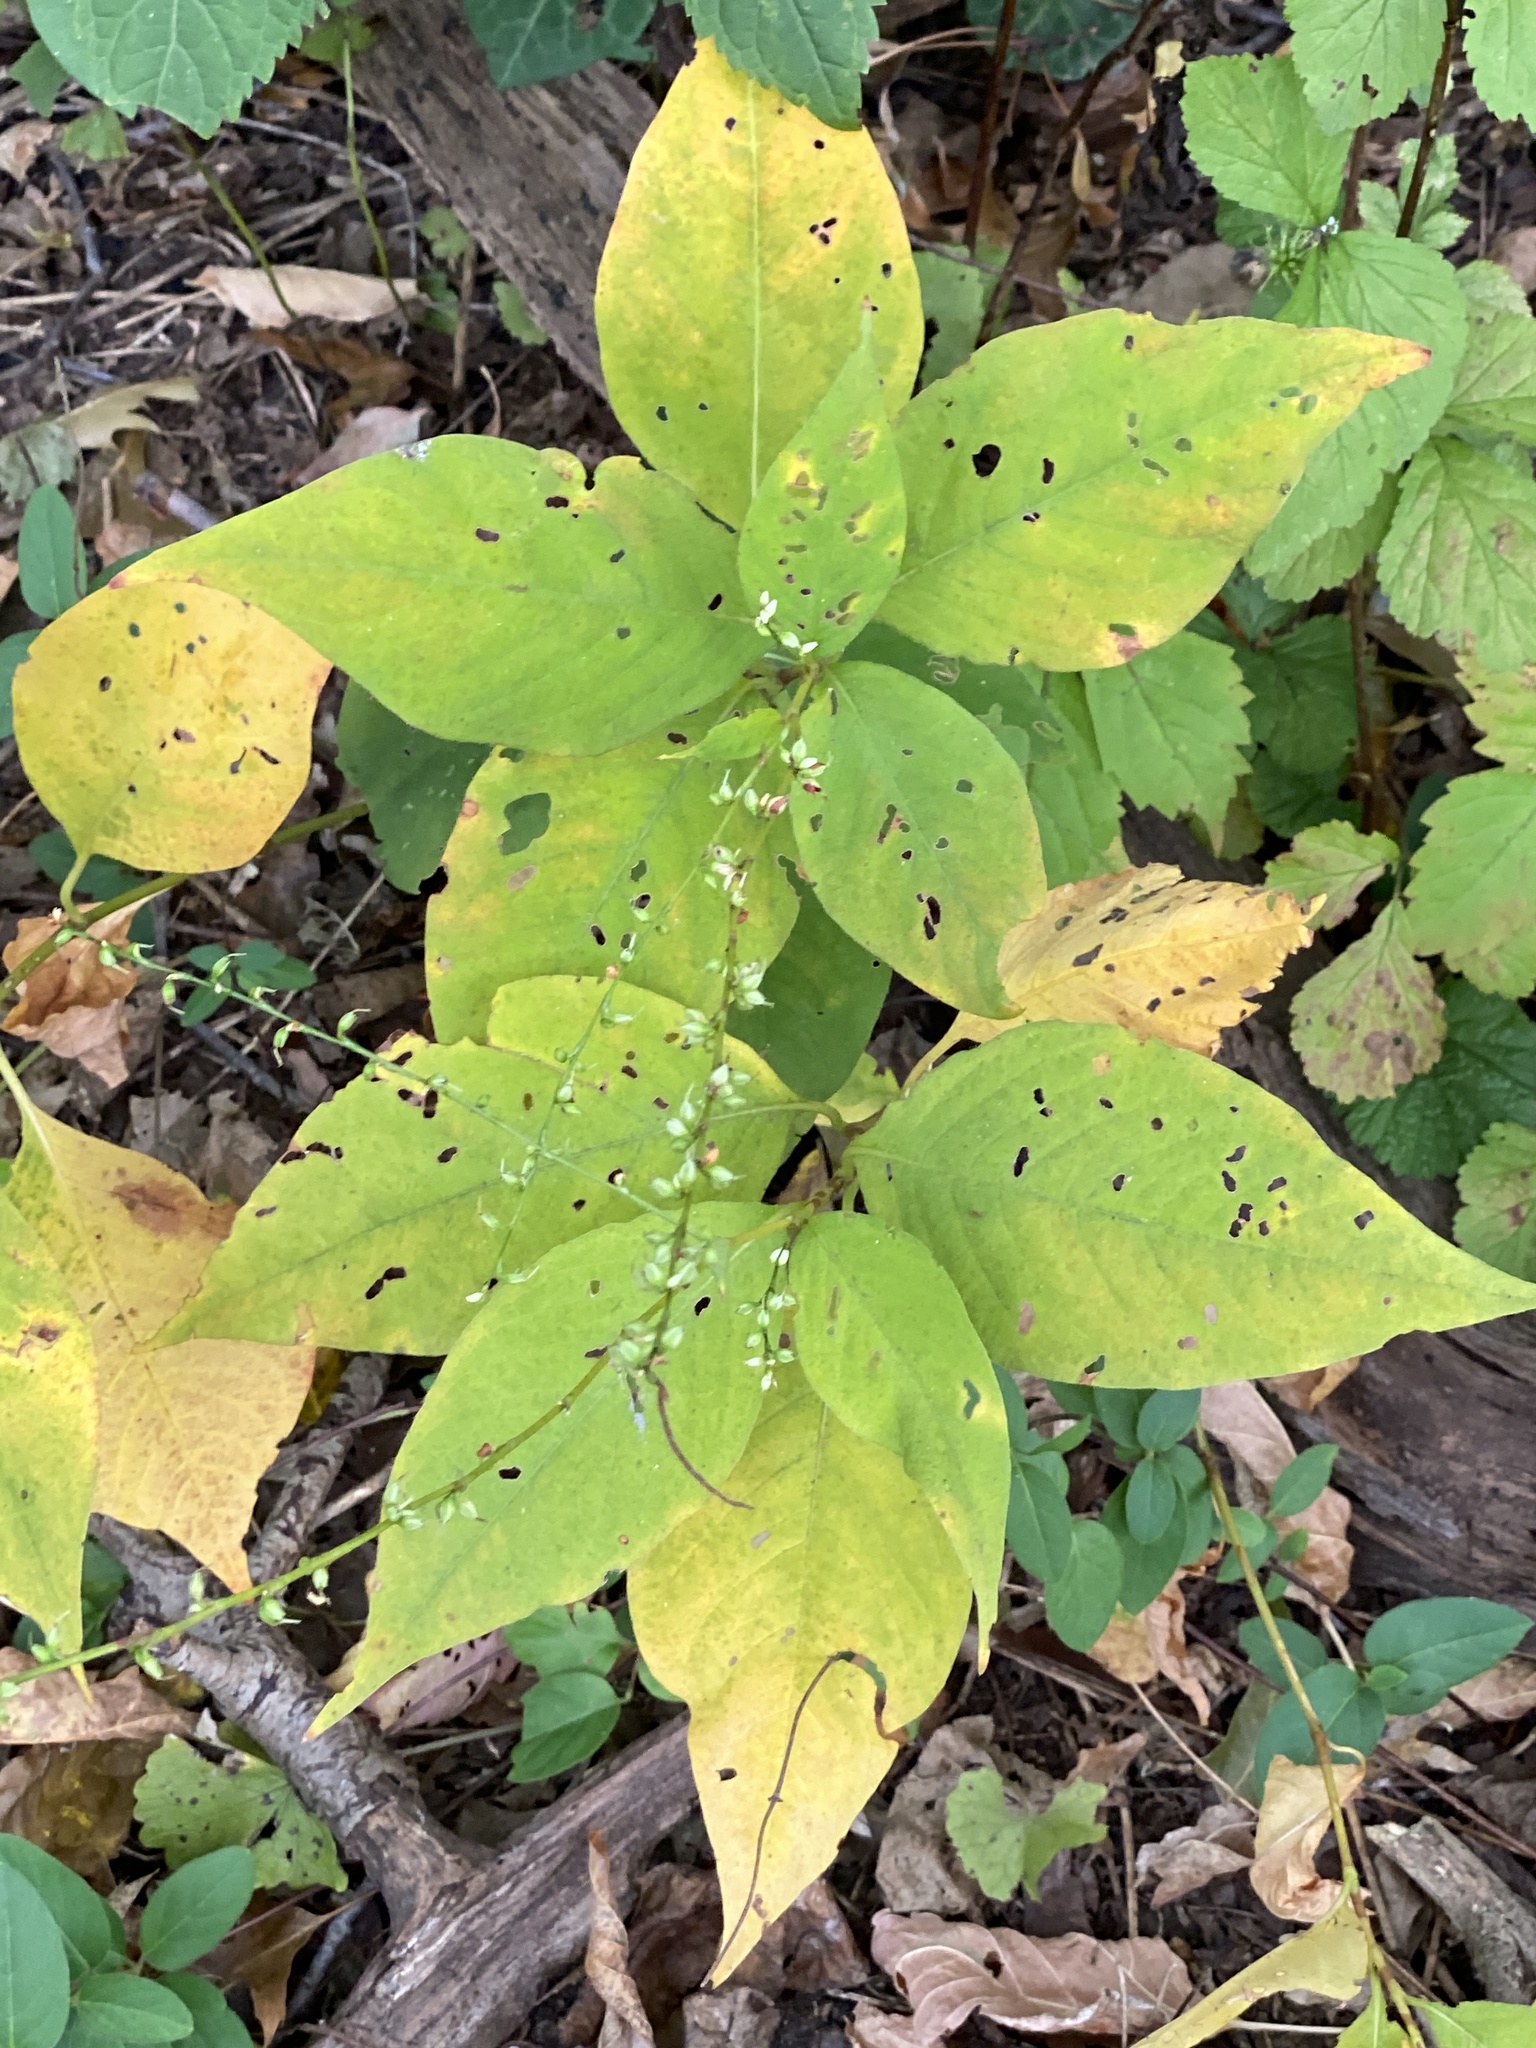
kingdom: Plantae
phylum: Tracheophyta
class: Magnoliopsida
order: Caryophyllales
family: Polygonaceae
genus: Persicaria
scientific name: Persicaria virginiana
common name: Jumpseed
